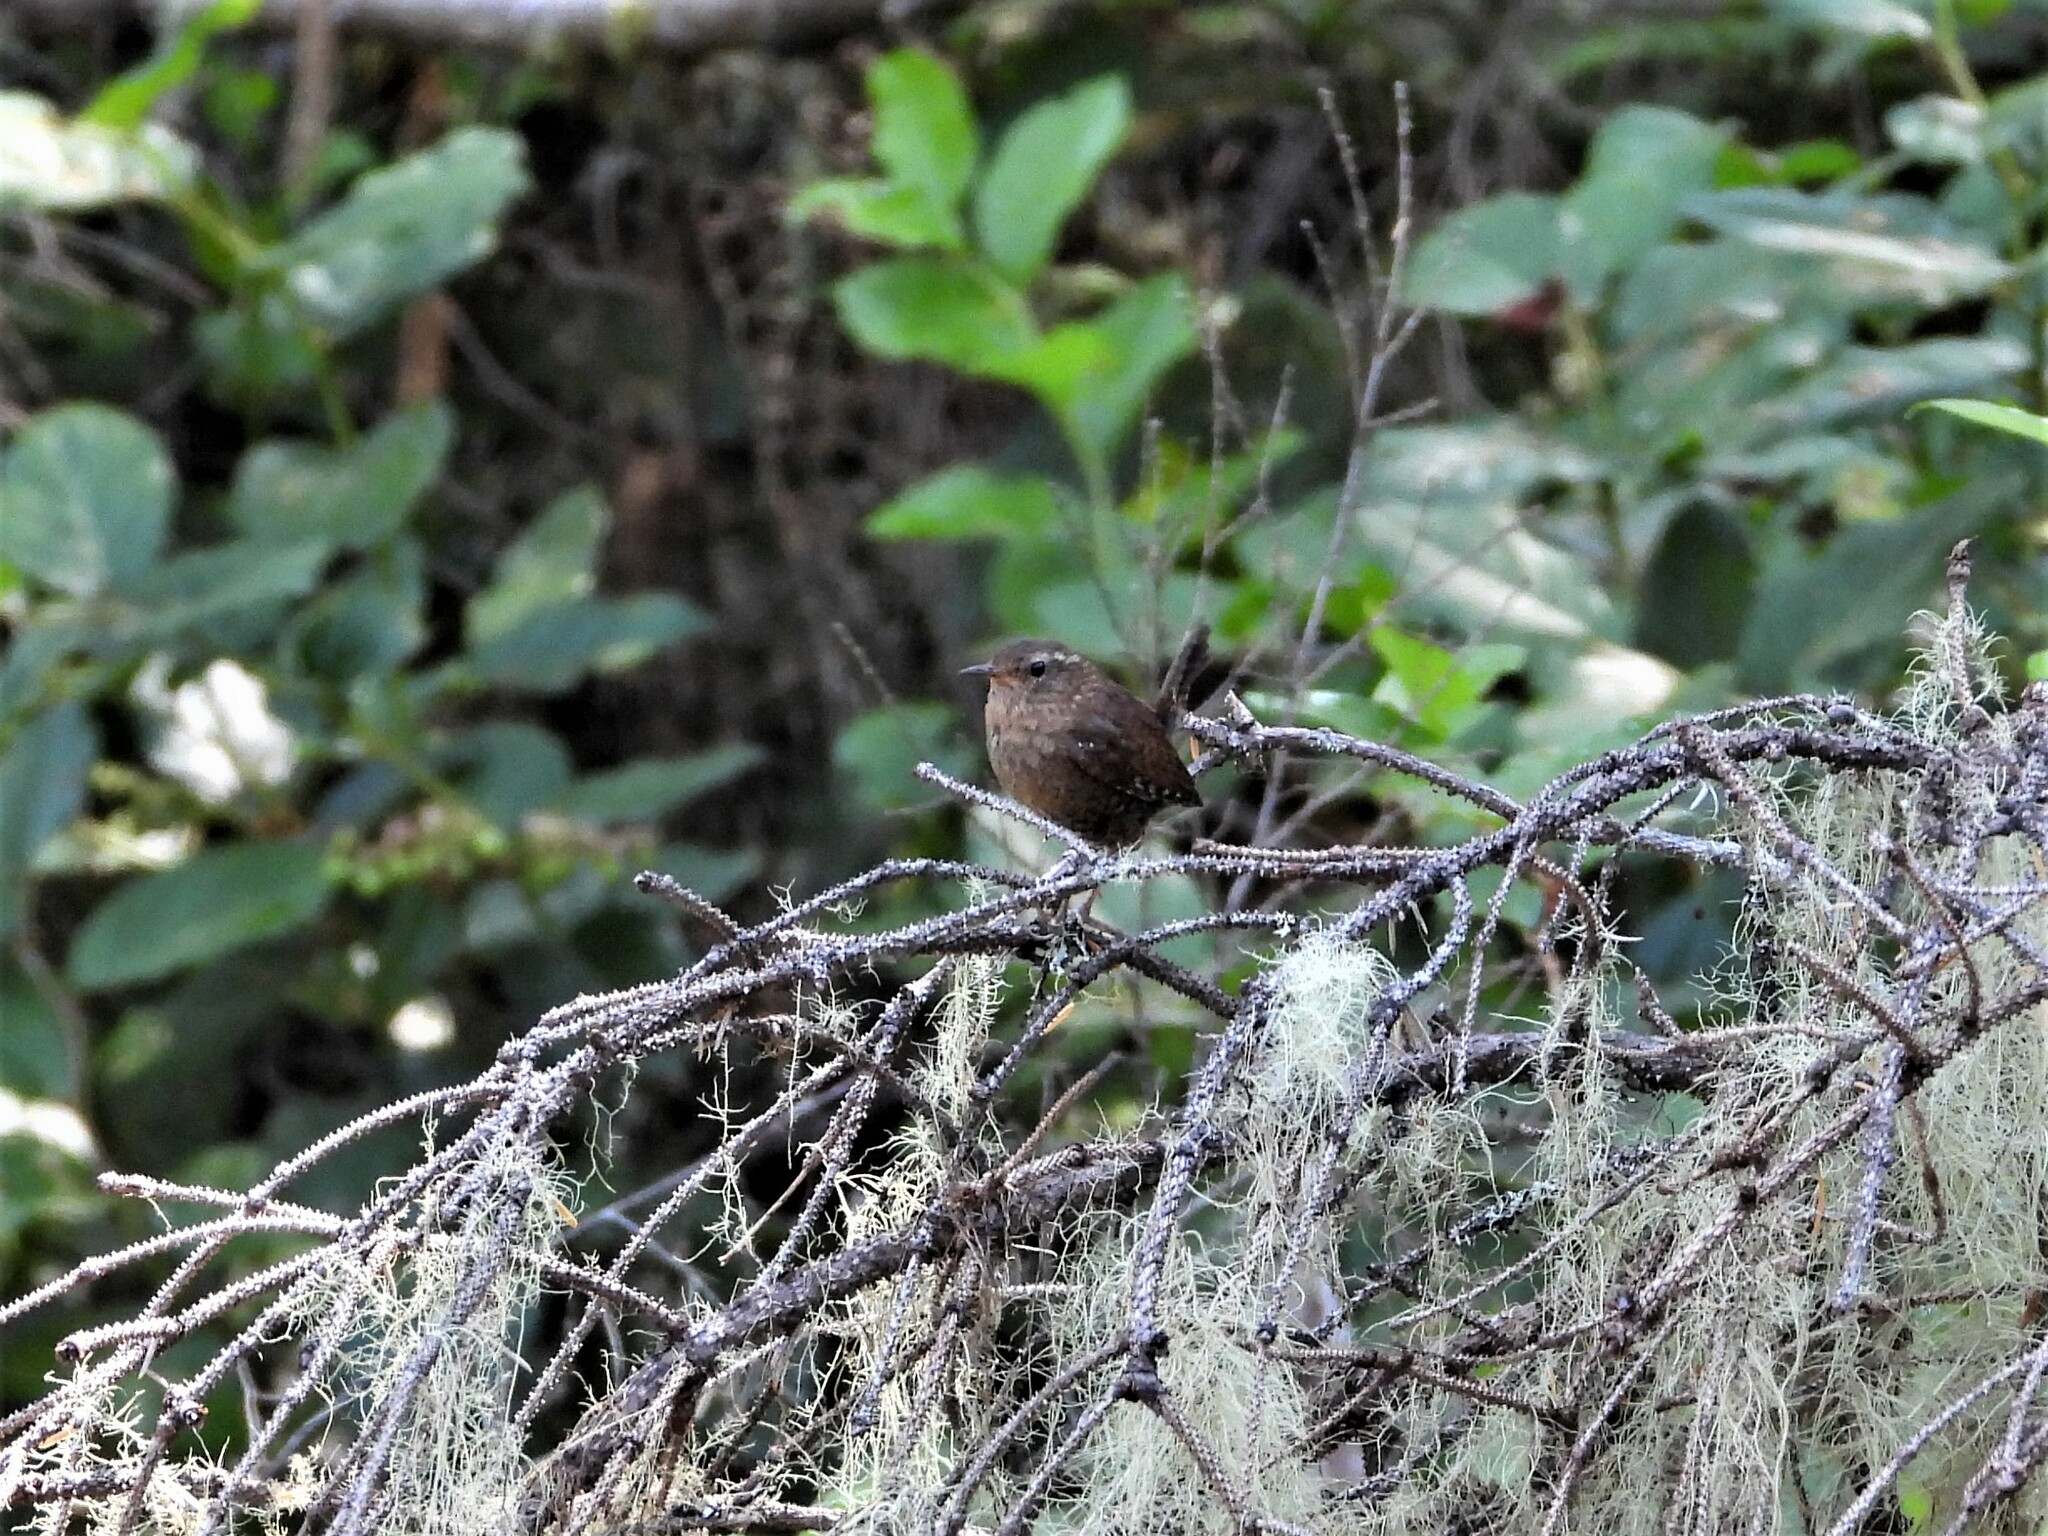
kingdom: Animalia
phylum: Chordata
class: Aves
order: Passeriformes
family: Troglodytidae
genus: Troglodytes
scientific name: Troglodytes pacificus
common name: Pacific wren
